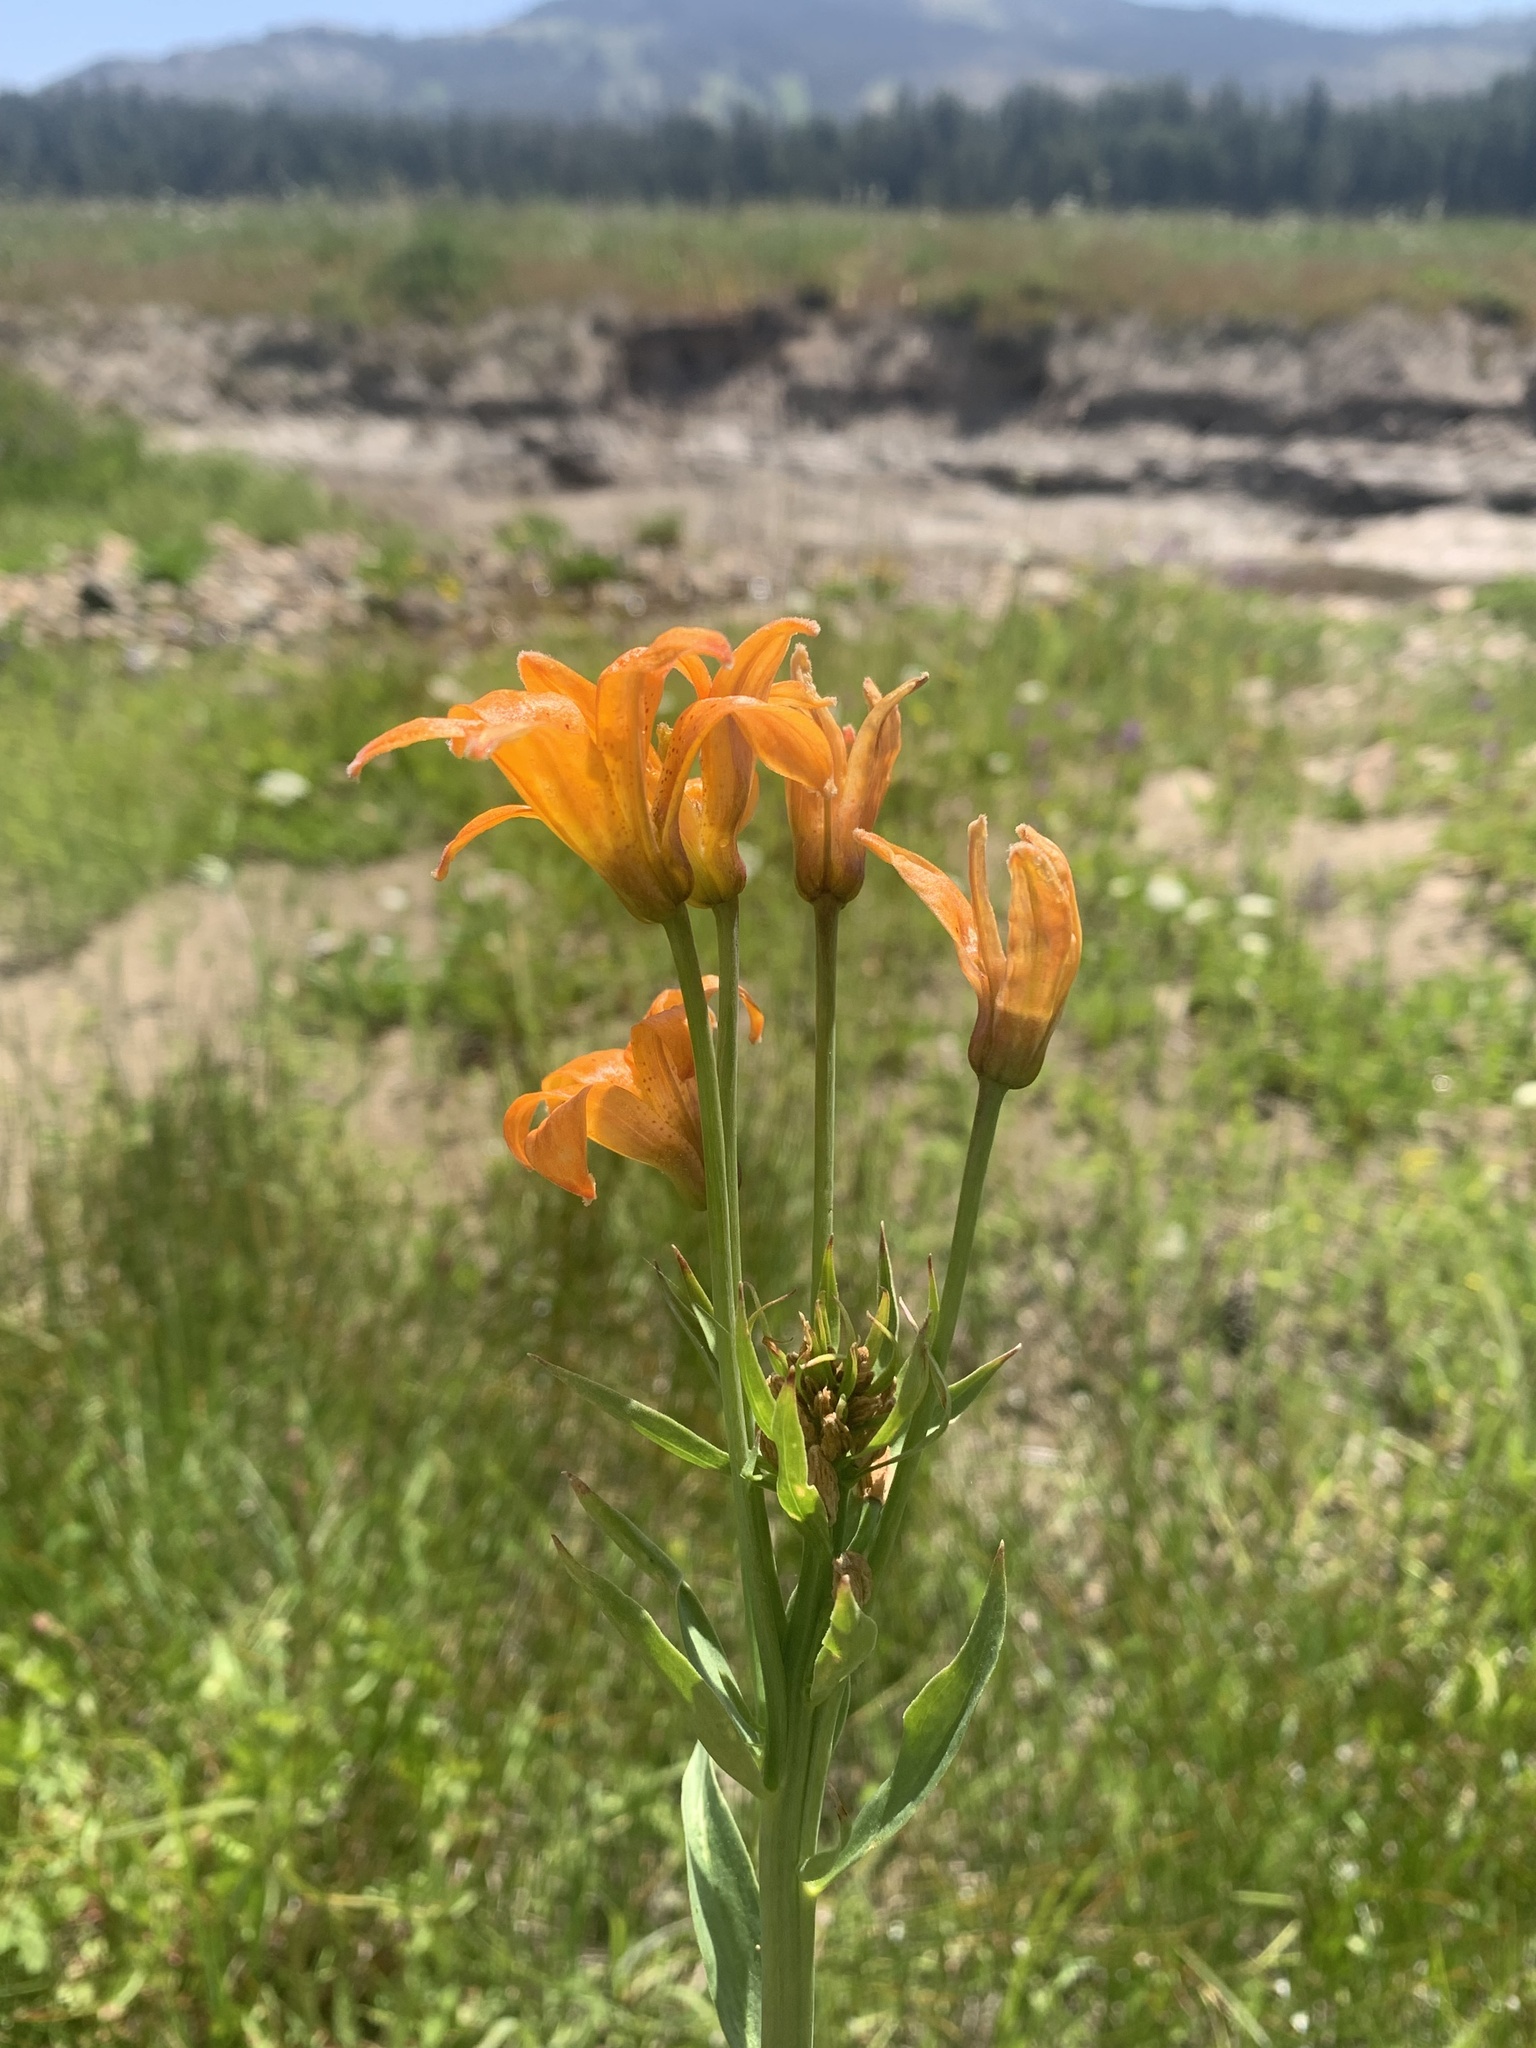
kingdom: Plantae
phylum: Tracheophyta
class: Liliopsida
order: Liliales
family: Liliaceae
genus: Lilium
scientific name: Lilium parvum
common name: Alpine lily
